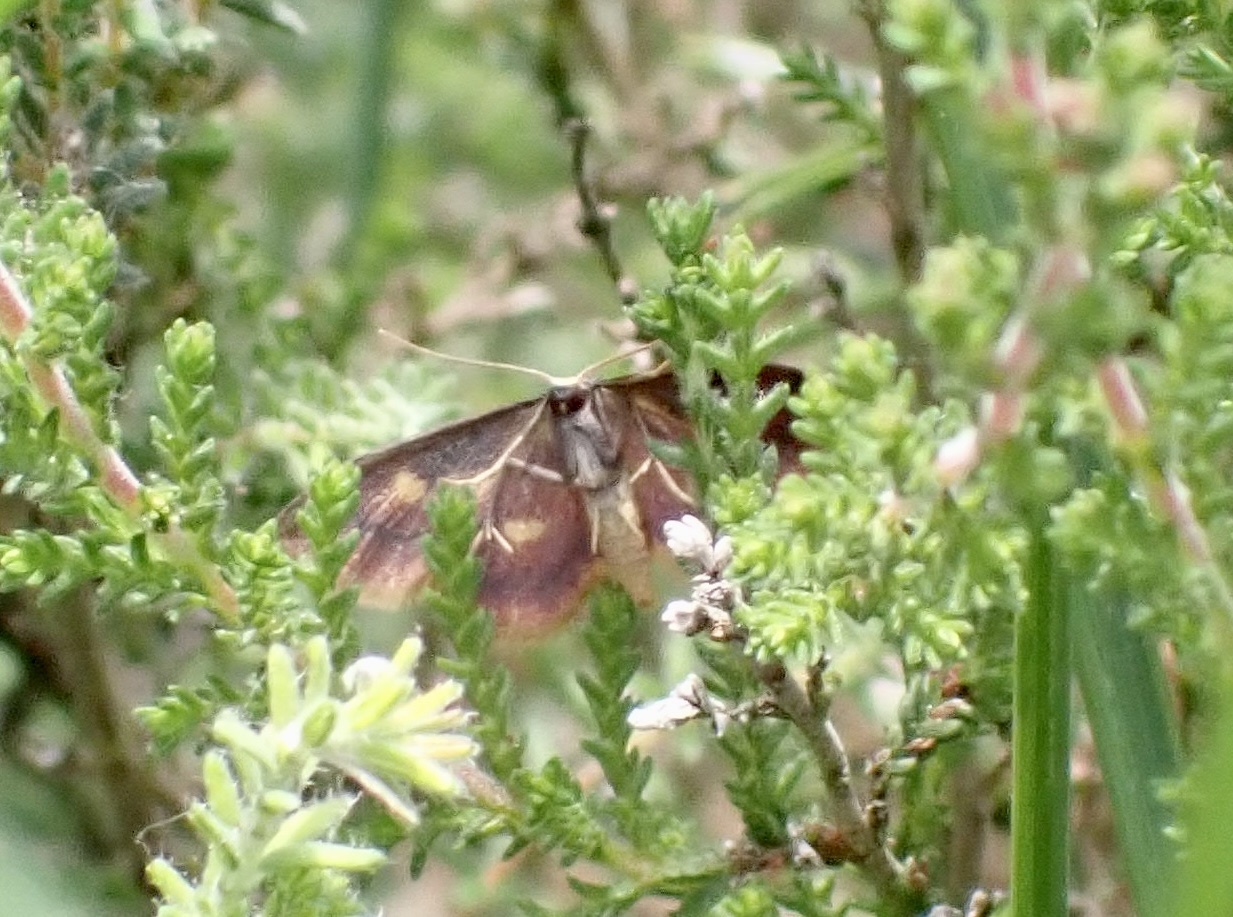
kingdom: Animalia
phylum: Arthropoda
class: Insecta
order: Lepidoptera
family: Geometridae
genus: Idaea
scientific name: Idaea muricata
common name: Purple-bordered gold
